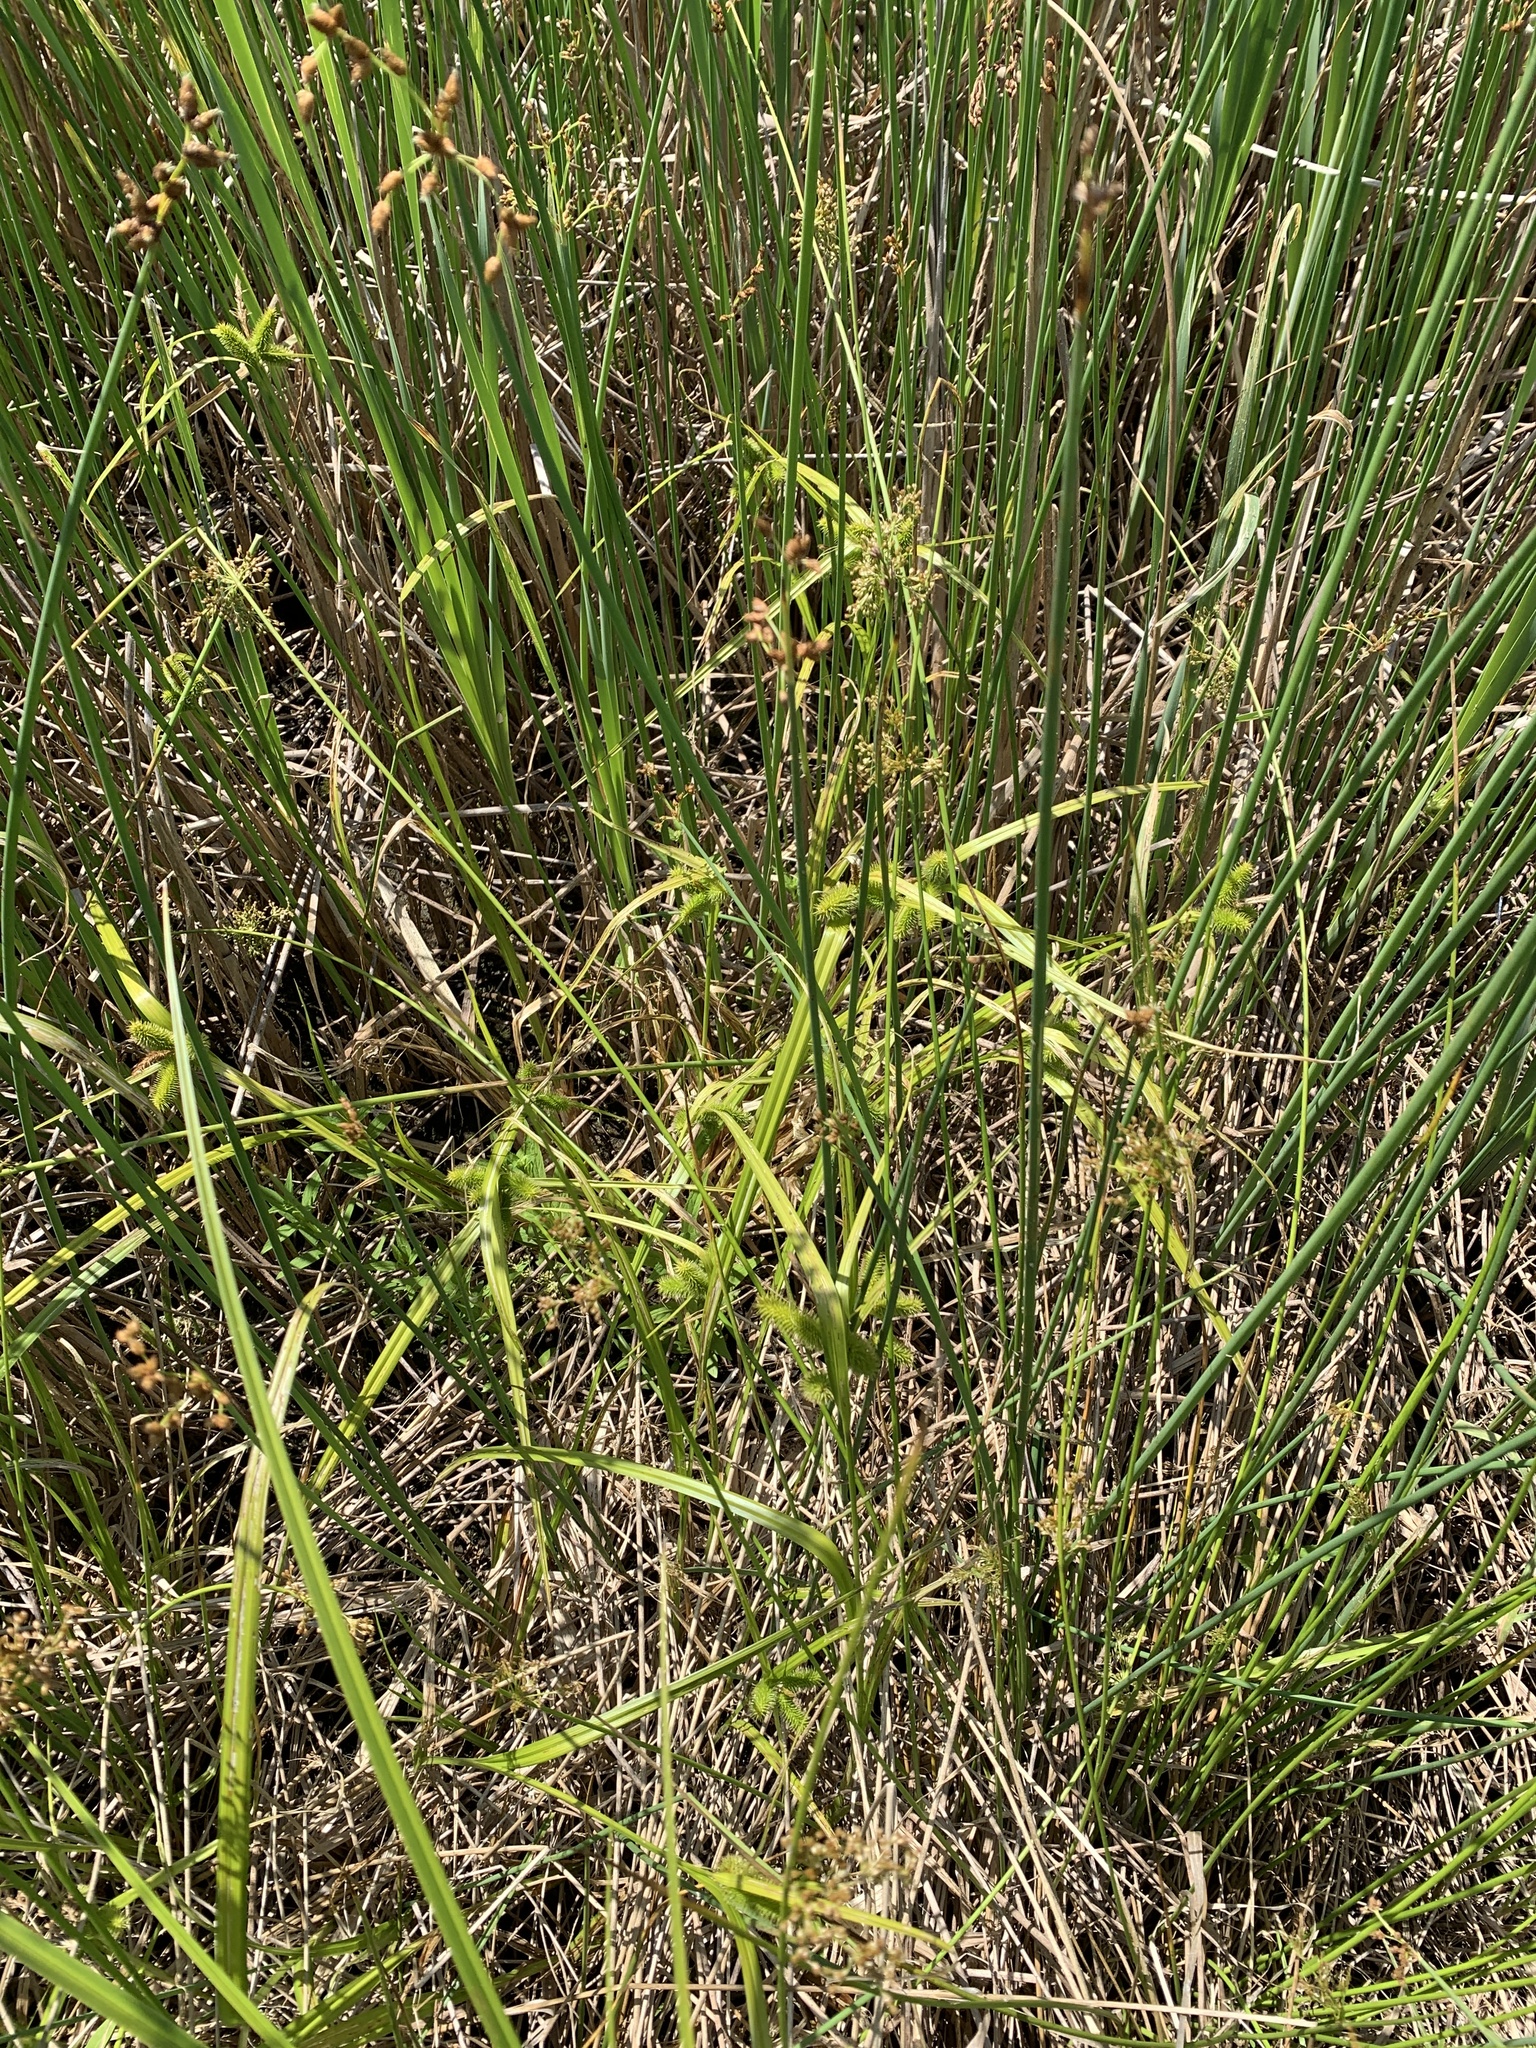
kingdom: Plantae
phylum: Tracheophyta
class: Liliopsida
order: Poales
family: Cyperaceae
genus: Carex
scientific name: Carex comosa
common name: Bristly sedge
